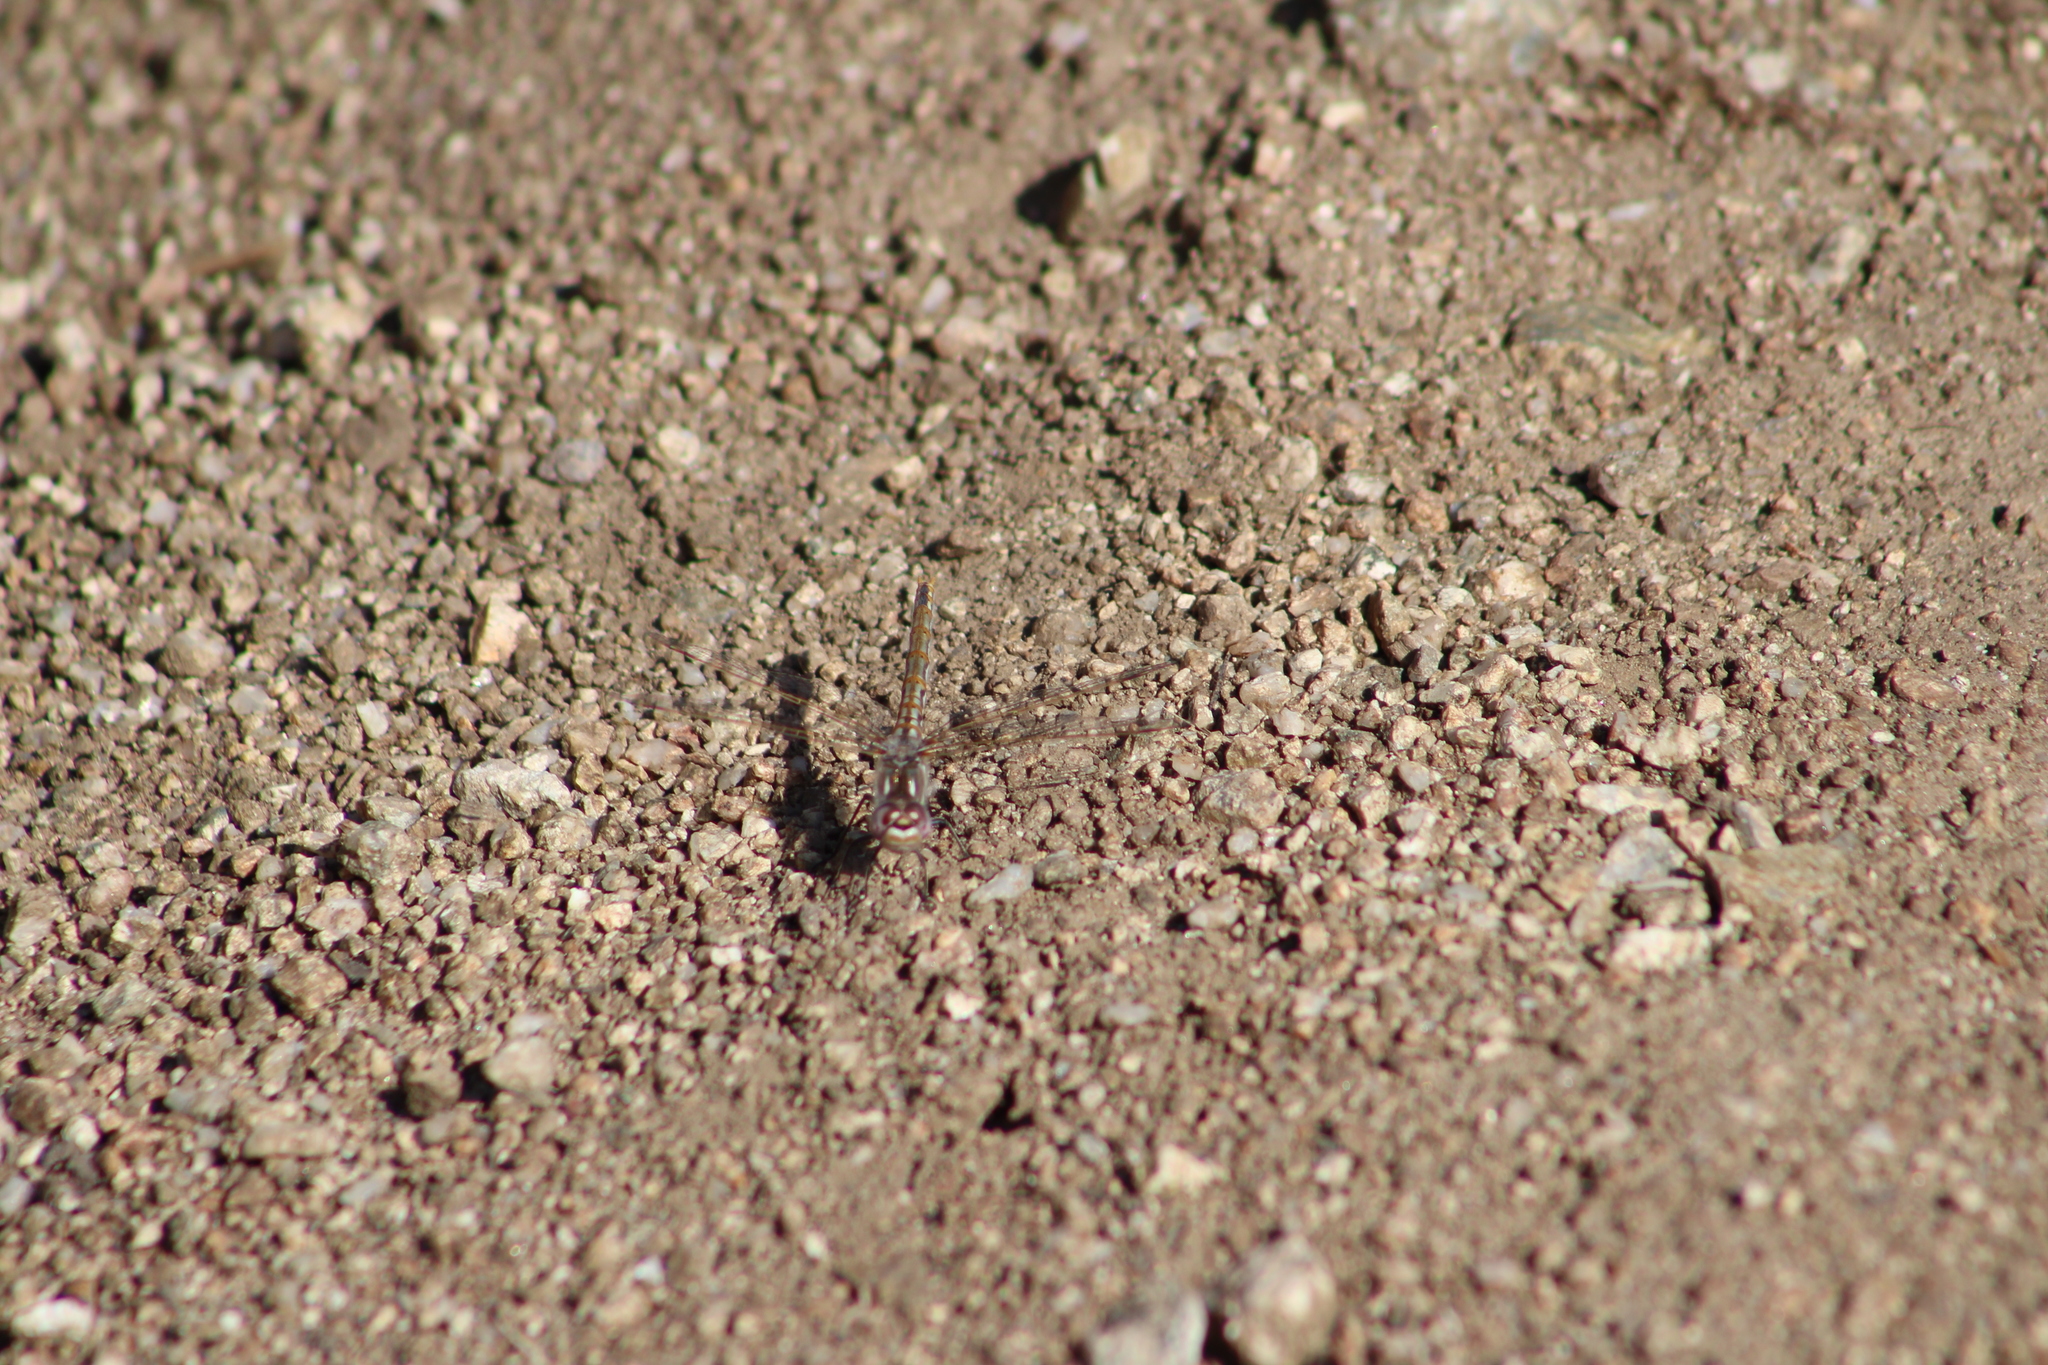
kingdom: Animalia
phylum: Arthropoda
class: Insecta
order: Odonata
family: Libellulidae
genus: Sympetrum
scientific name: Sympetrum corruptum
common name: Variegated meadowhawk
